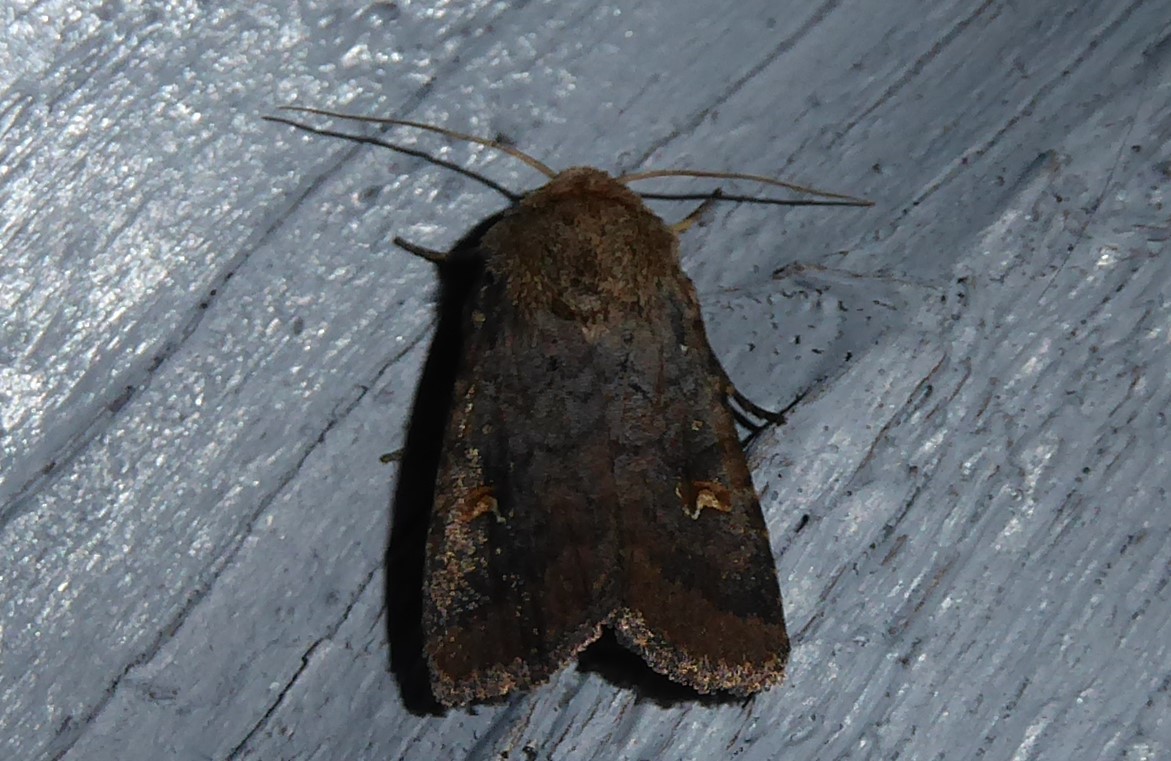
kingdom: Animalia
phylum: Arthropoda
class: Insecta
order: Lepidoptera
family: Noctuidae
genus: Proteuxoa
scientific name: Proteuxoa tetronycha
